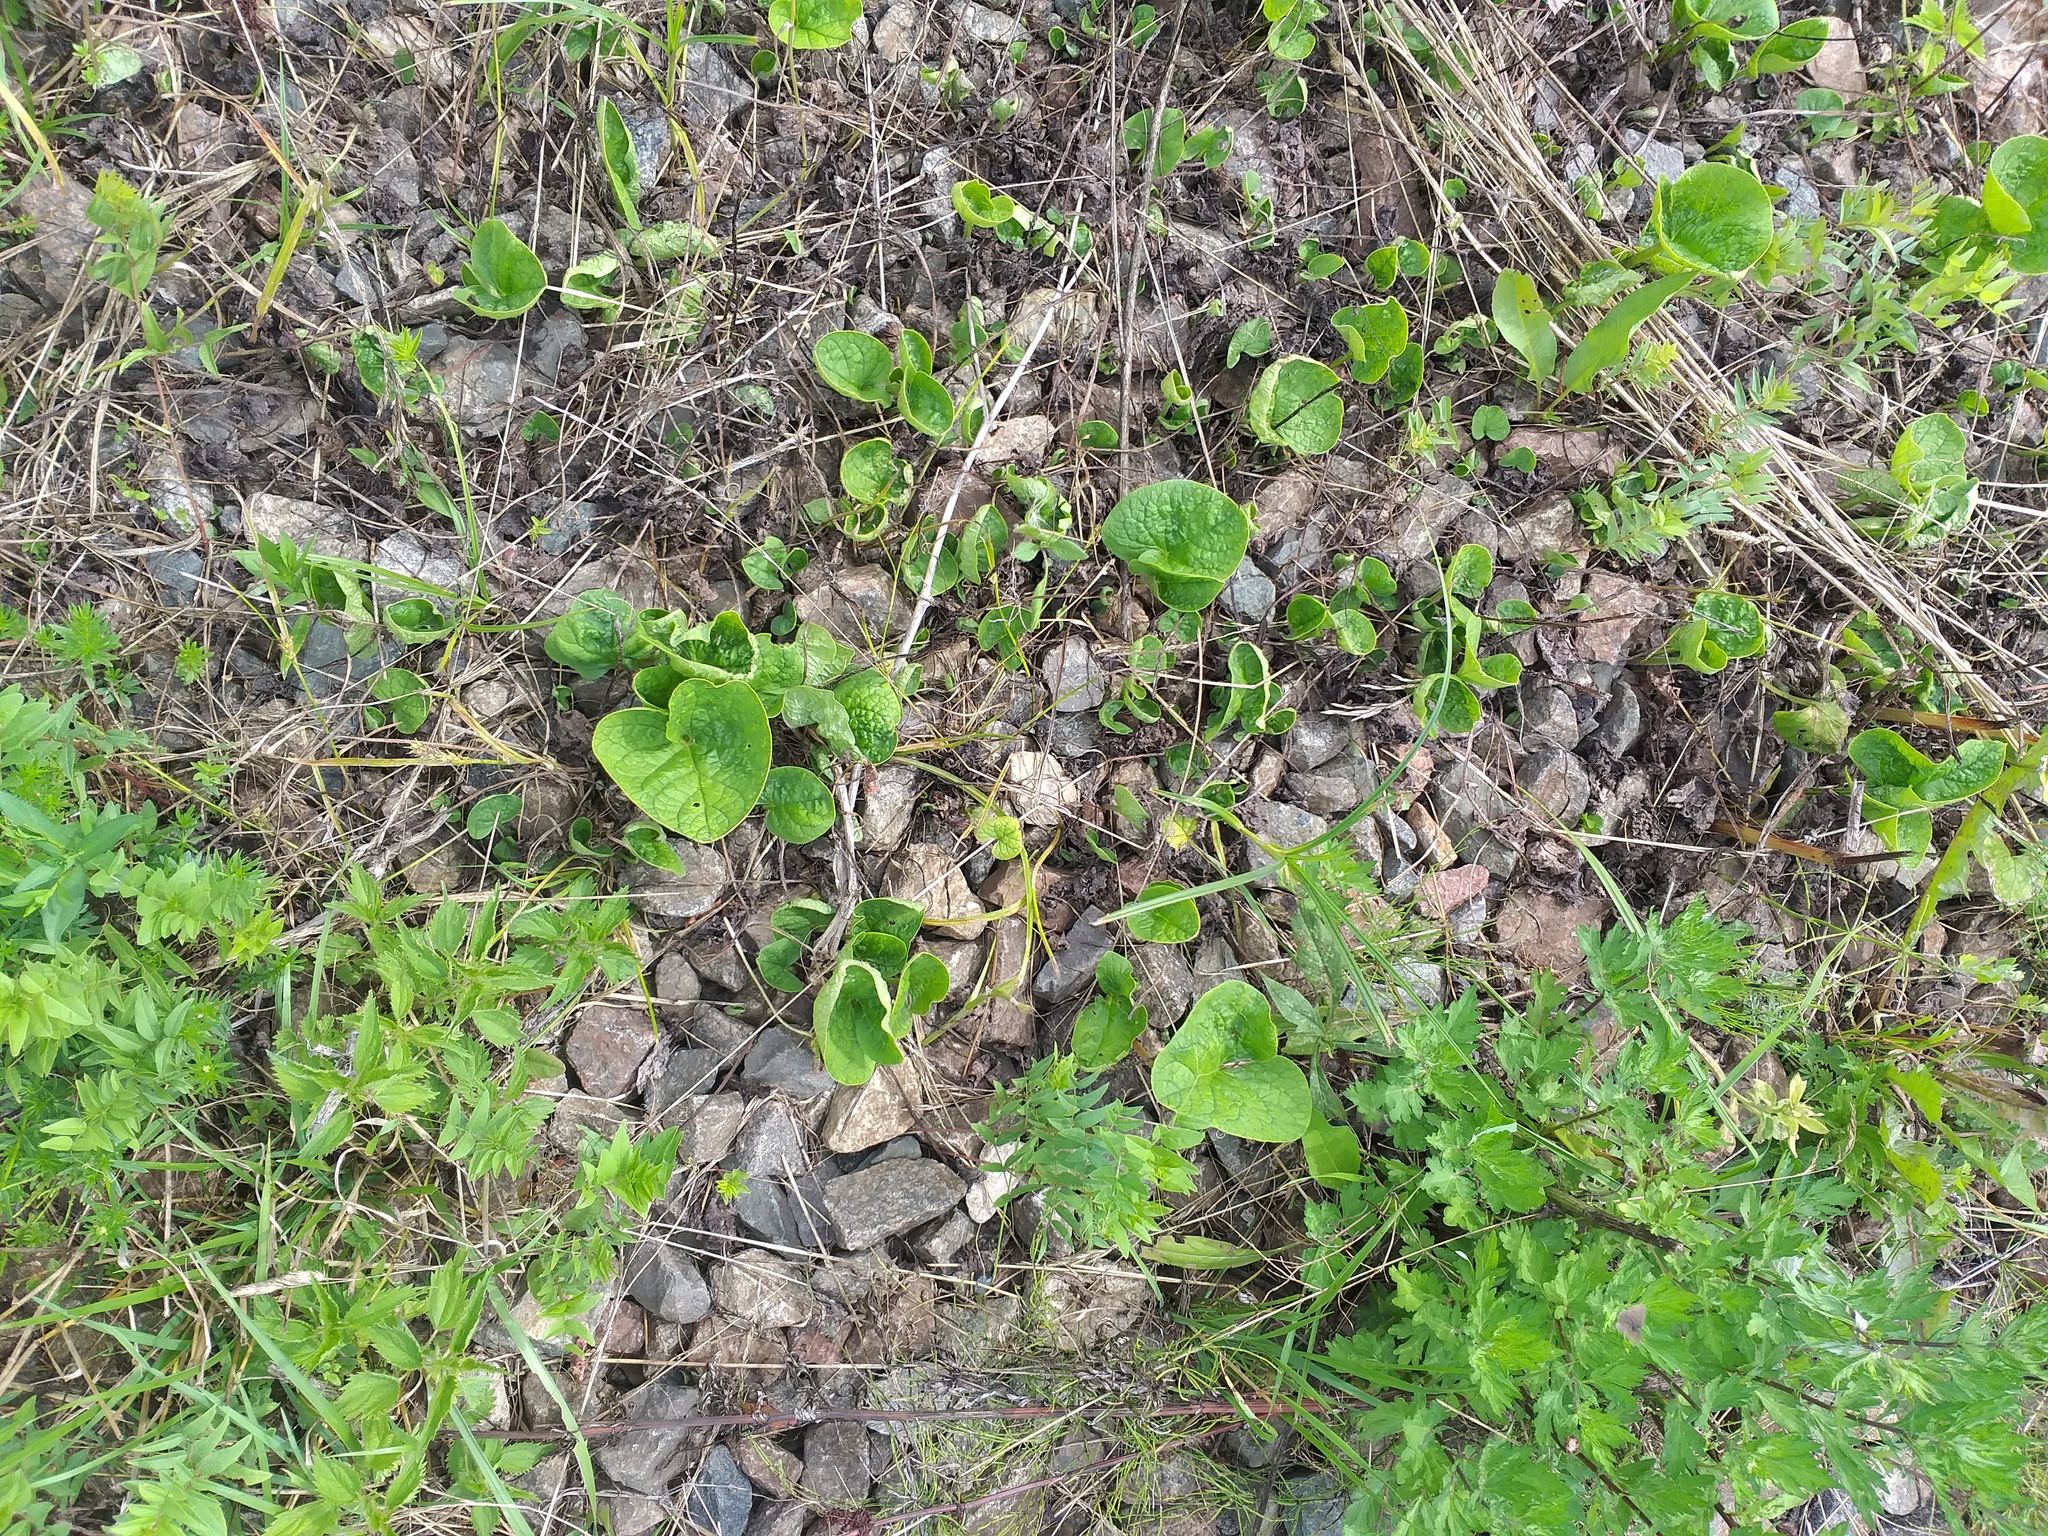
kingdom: Plantae
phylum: Tracheophyta
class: Magnoliopsida
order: Boraginales
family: Boraginaceae
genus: Brunnera
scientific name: Brunnera sibirica
